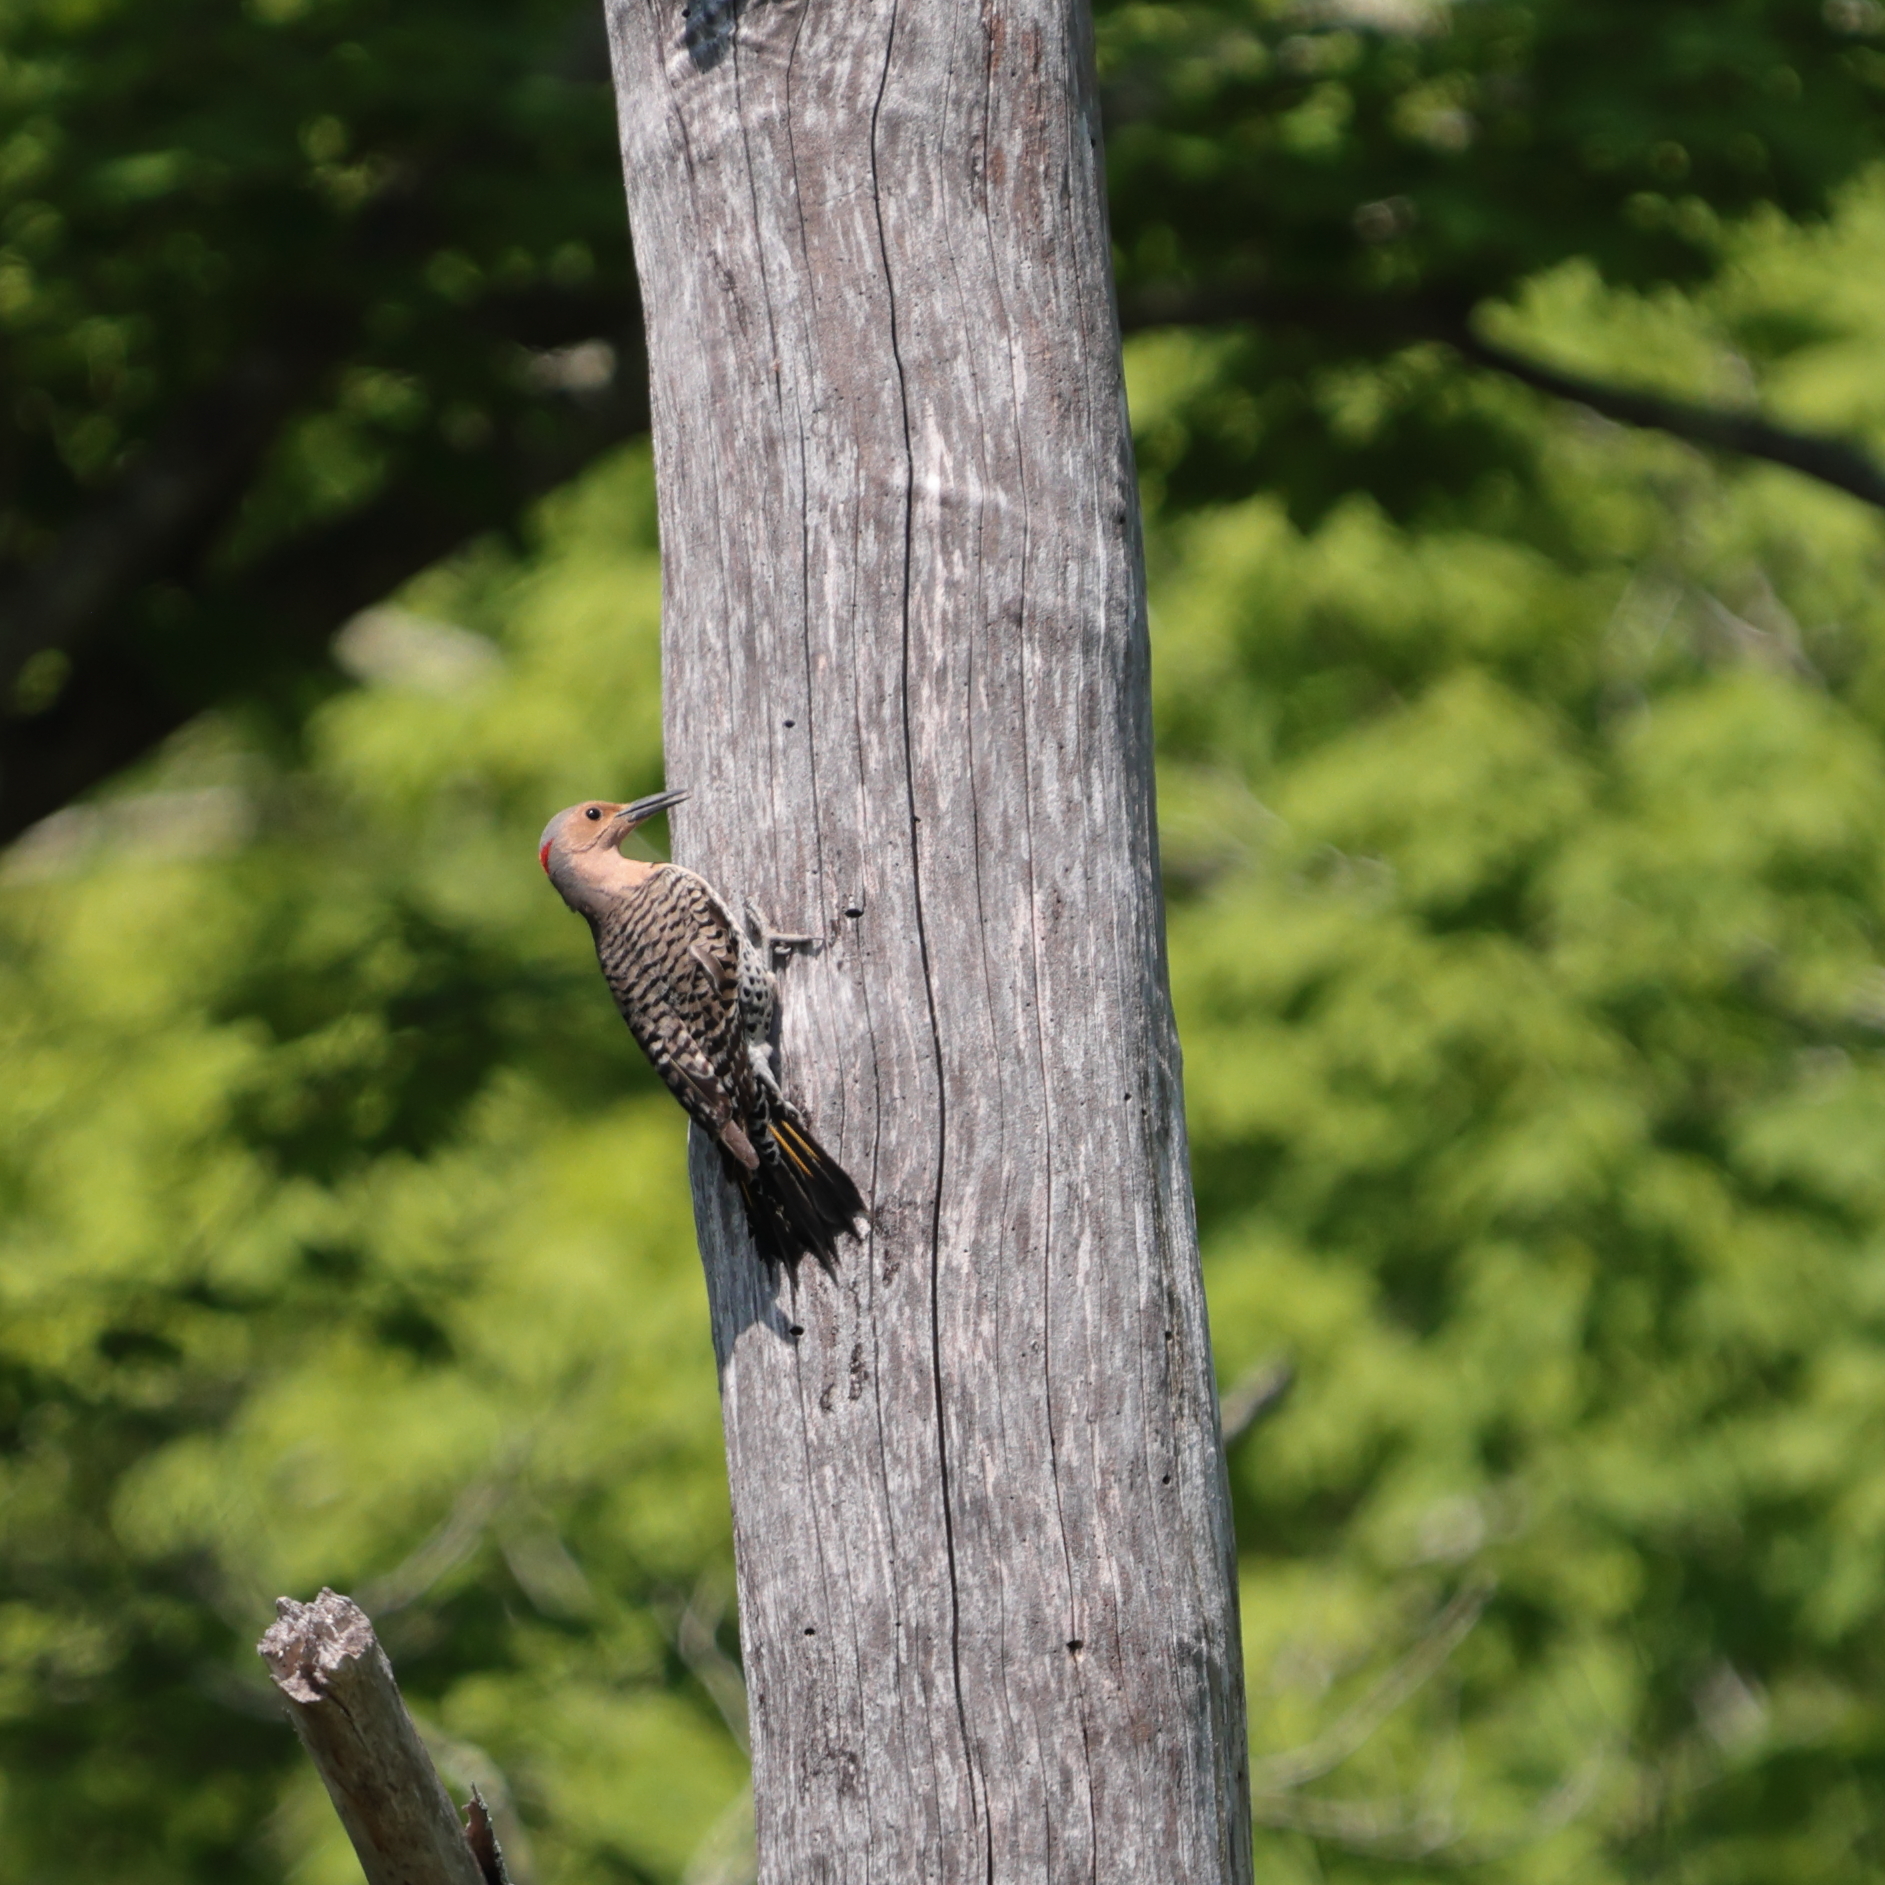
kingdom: Animalia
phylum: Chordata
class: Aves
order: Piciformes
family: Picidae
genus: Colaptes
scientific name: Colaptes auratus
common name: Northern flicker
